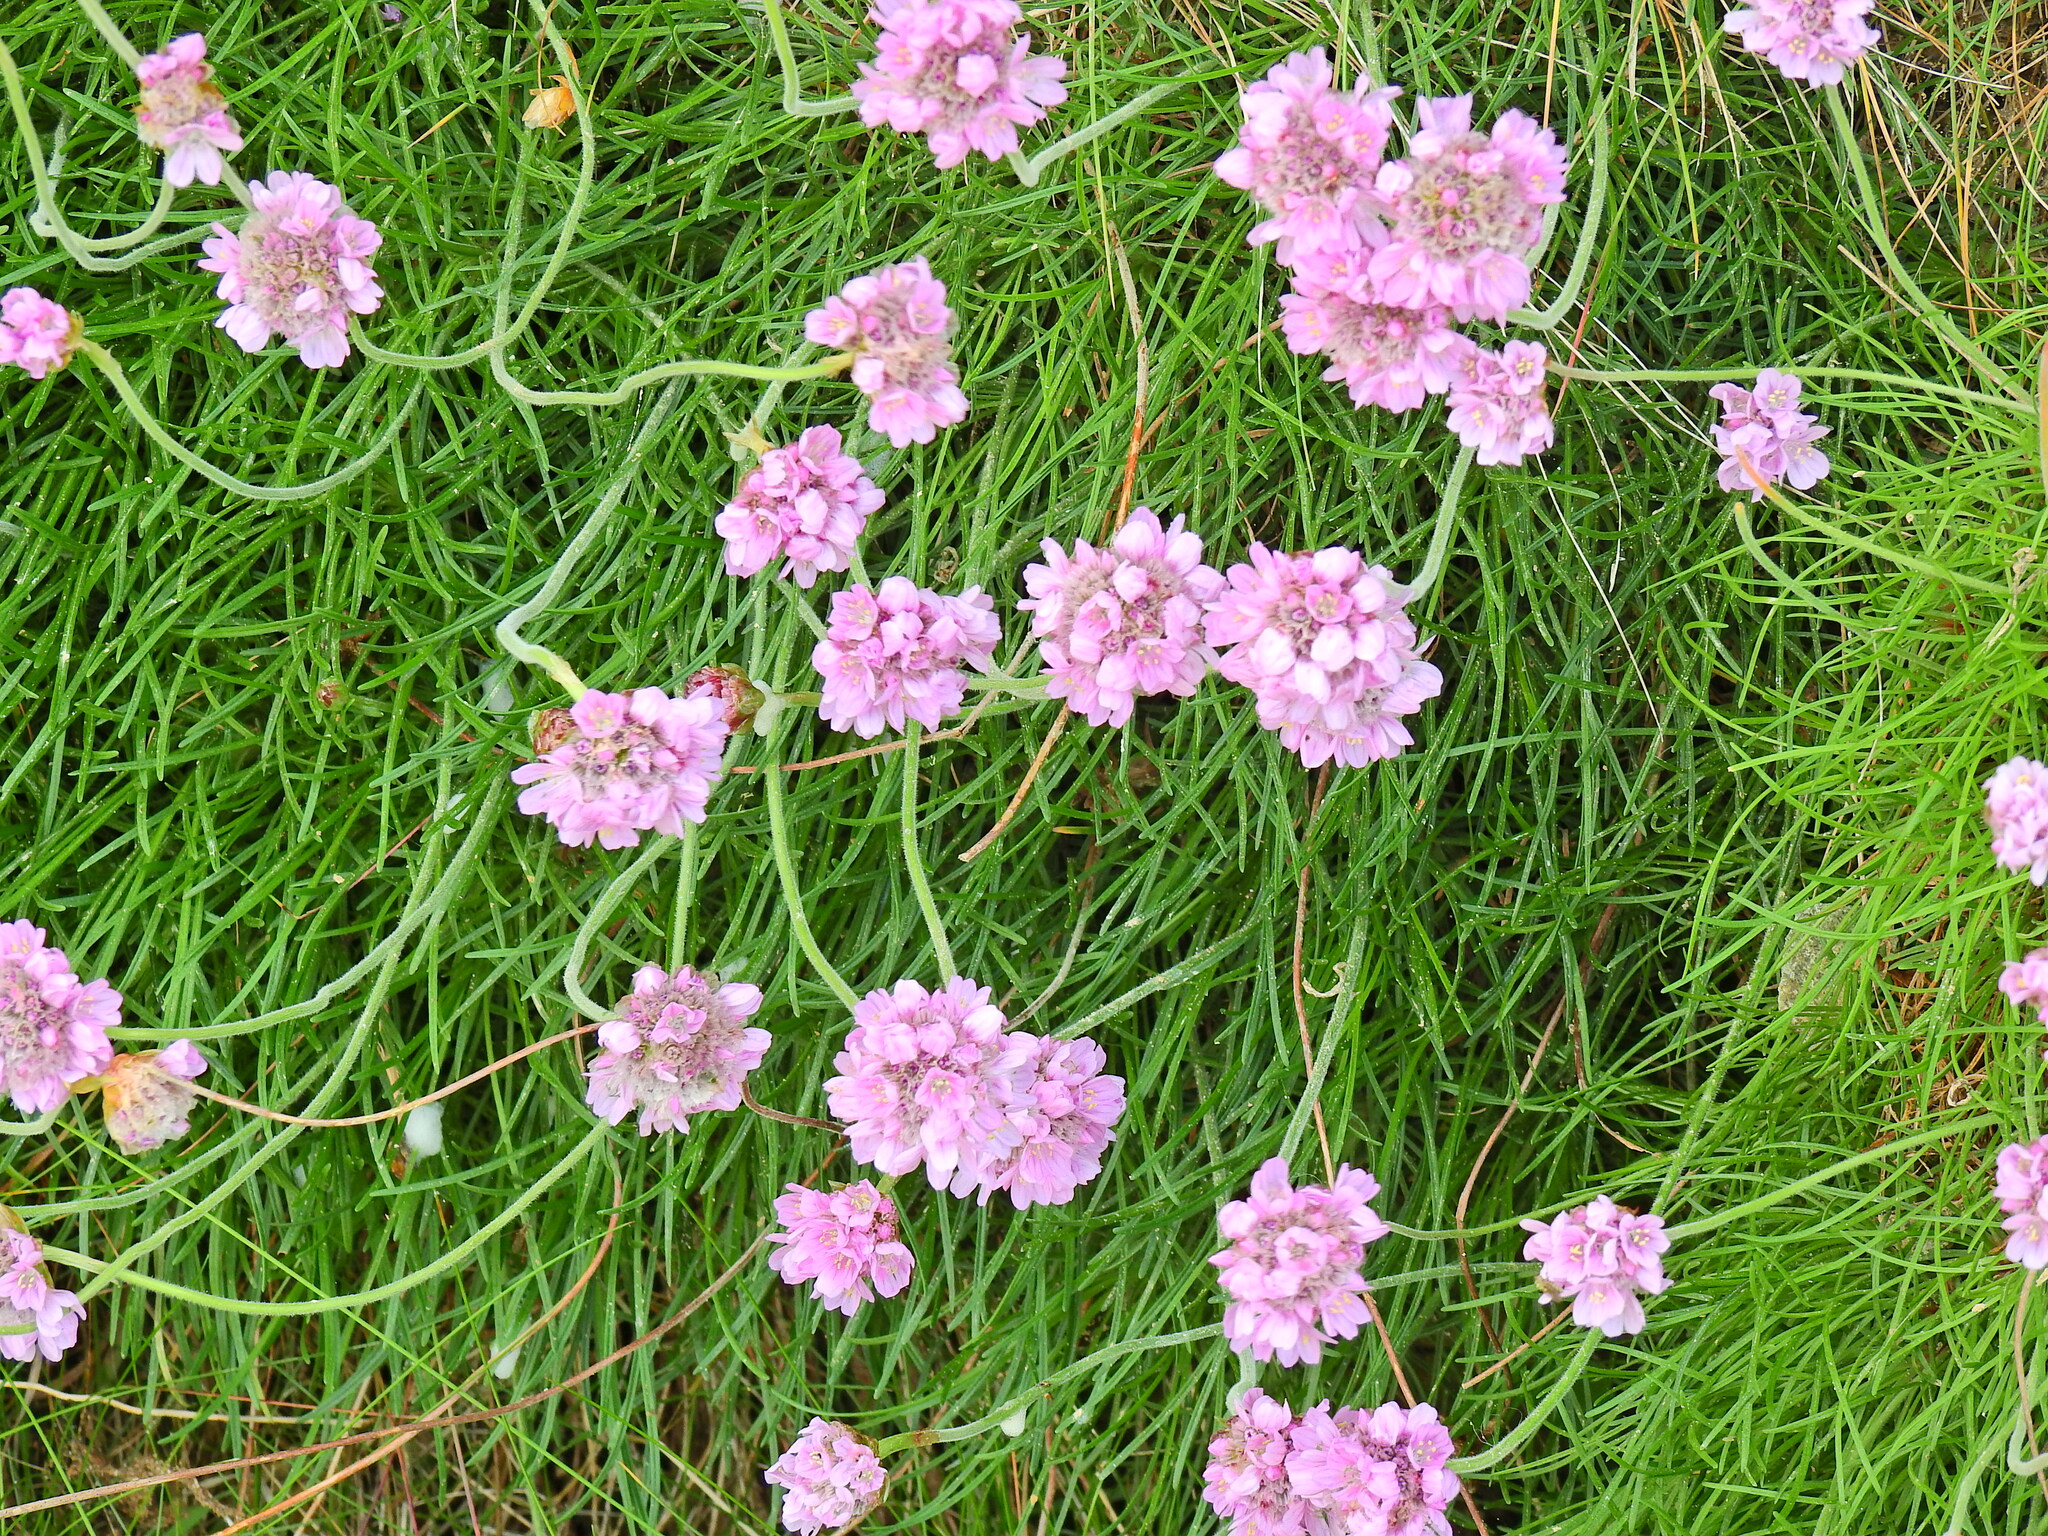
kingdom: Plantae
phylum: Tracheophyta
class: Magnoliopsida
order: Caryophyllales
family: Plumbaginaceae
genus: Armeria
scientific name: Armeria maritima
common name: Thrift
